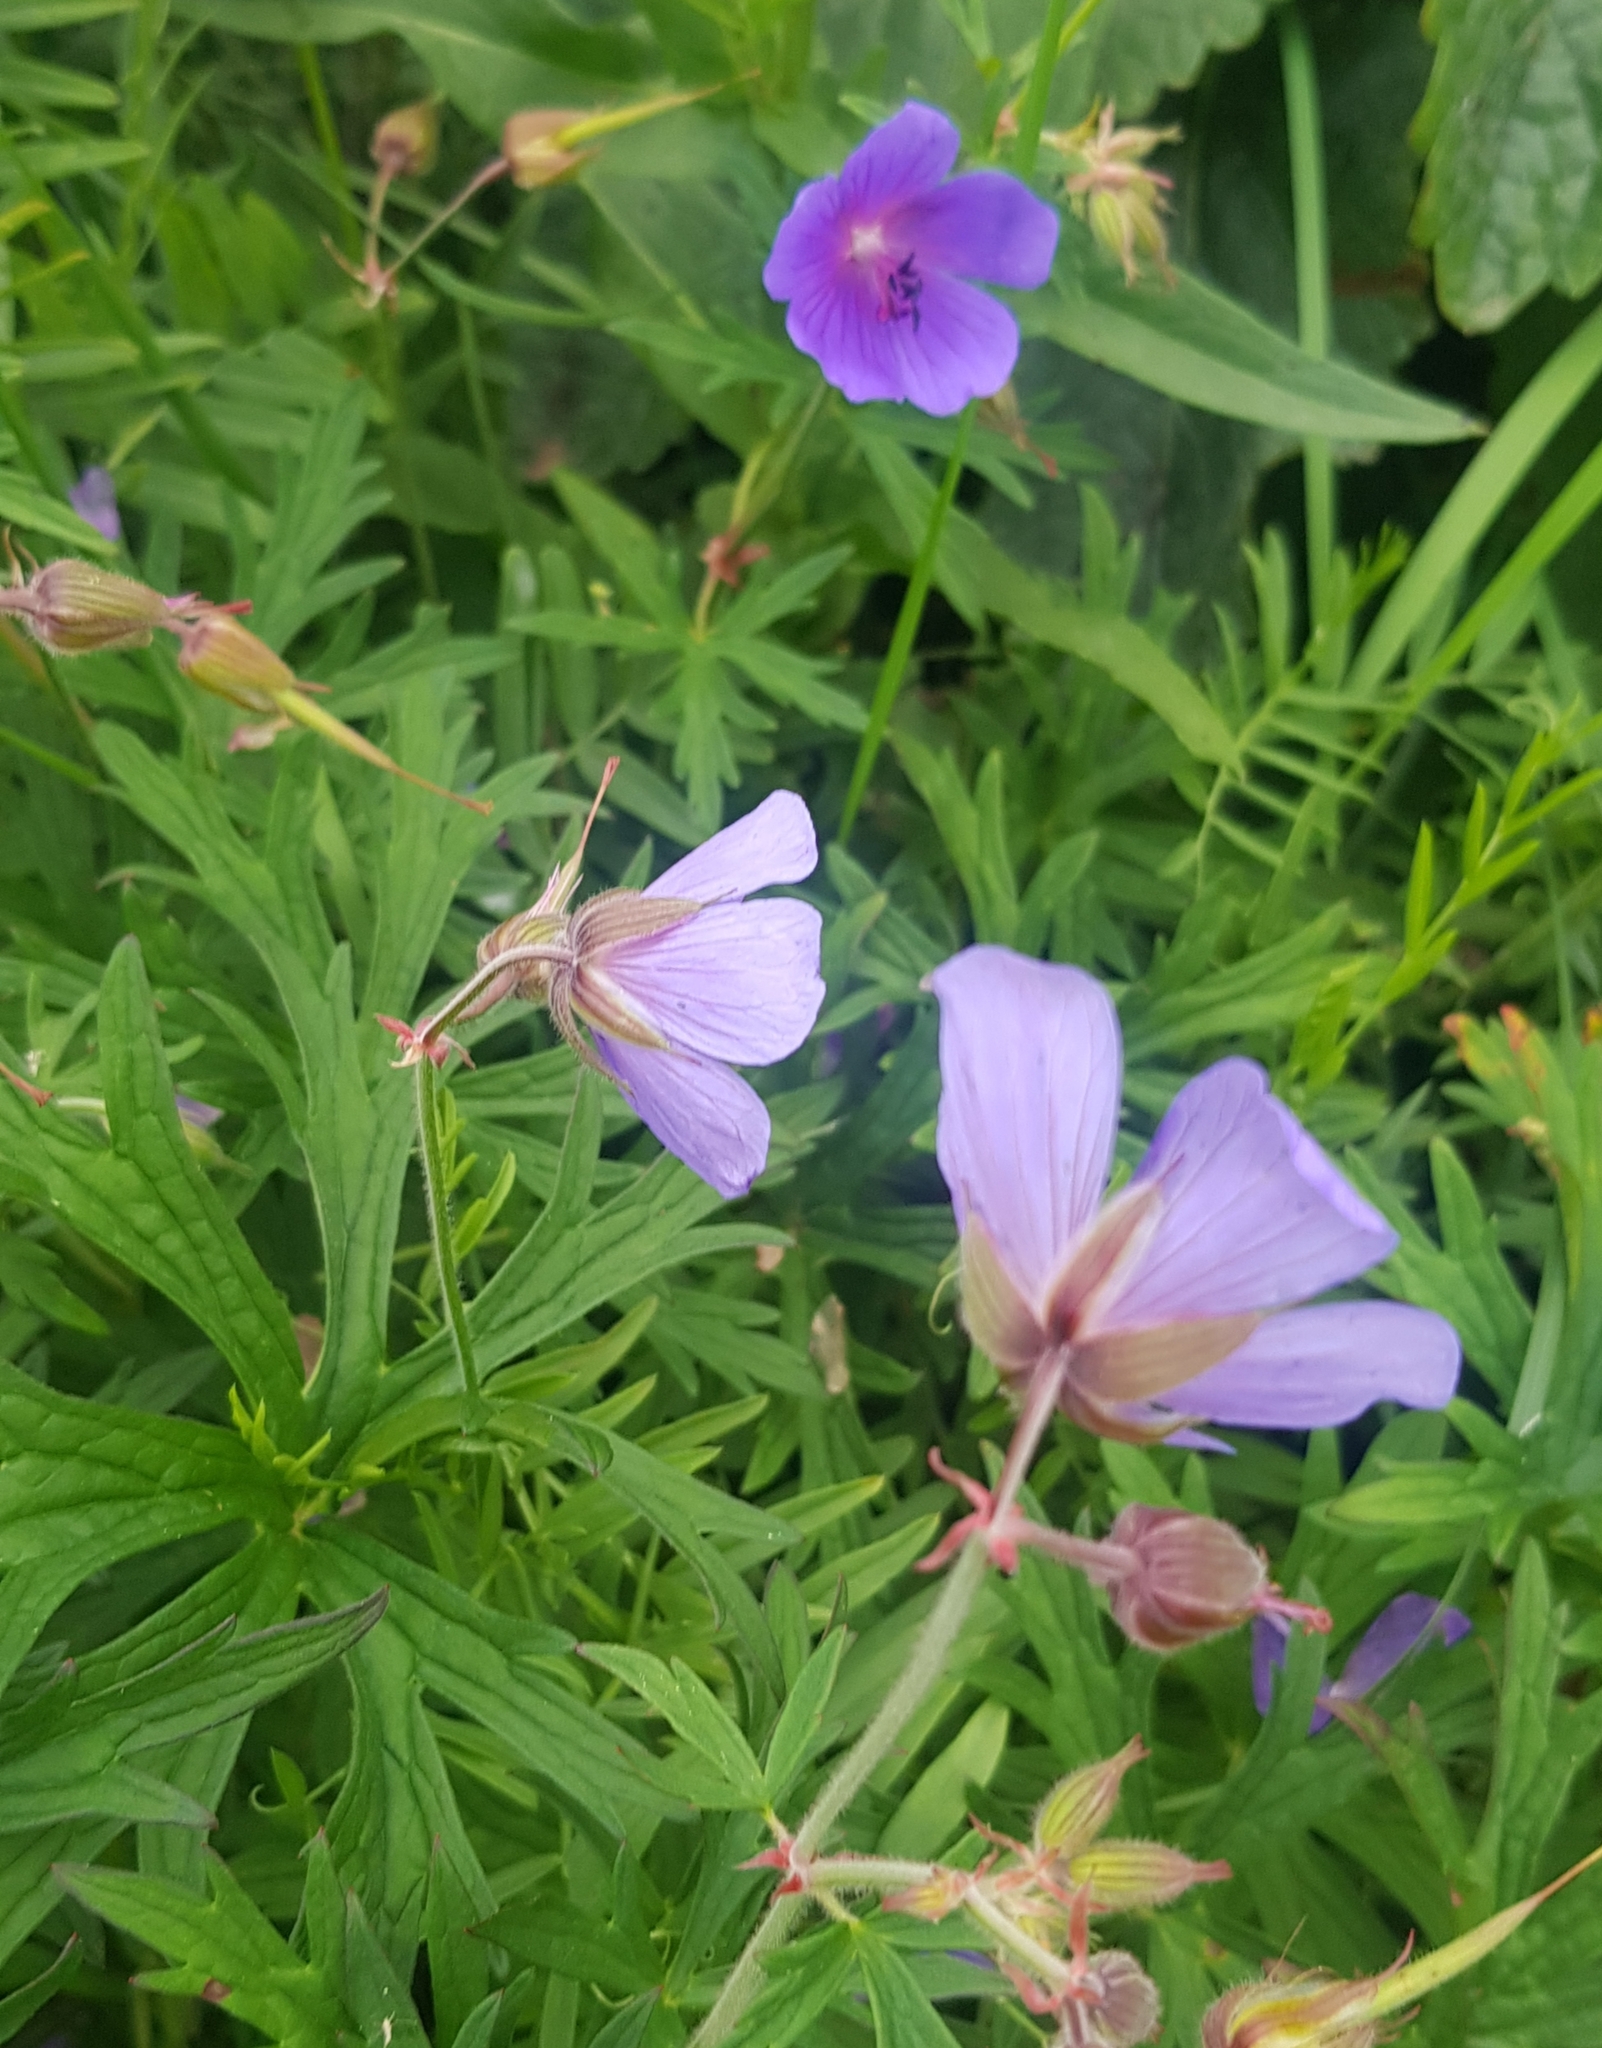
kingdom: Plantae
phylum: Tracheophyta
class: Magnoliopsida
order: Geraniales
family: Geraniaceae
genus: Geranium
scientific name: Geranium pratense
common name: Meadow crane's-bill
